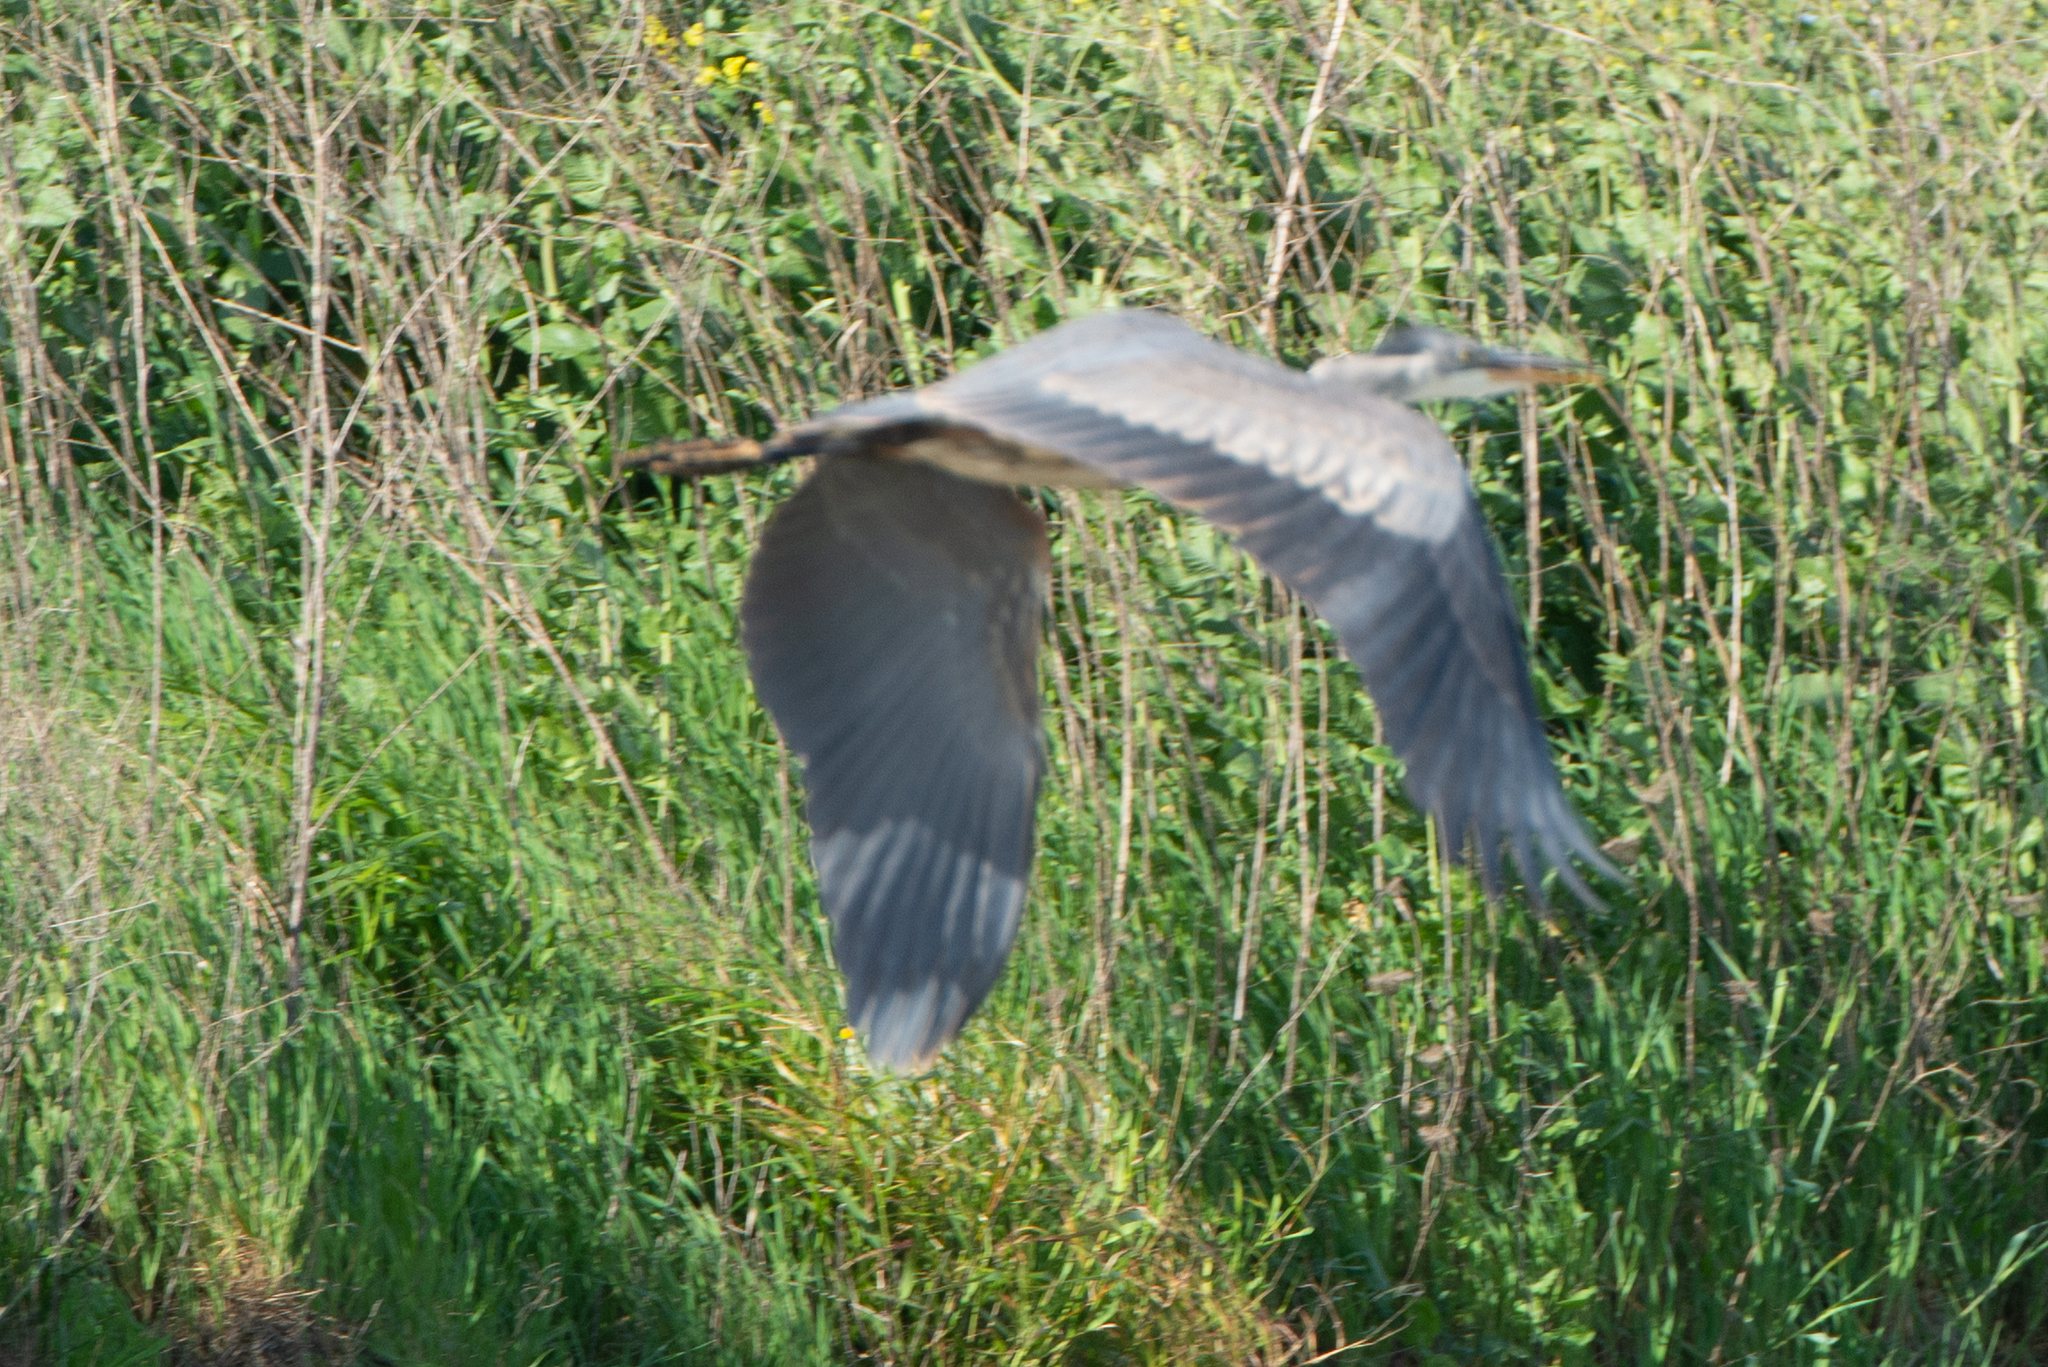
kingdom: Animalia
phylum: Chordata
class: Aves
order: Pelecaniformes
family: Ardeidae
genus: Ardea
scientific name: Ardea herodias
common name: Great blue heron
